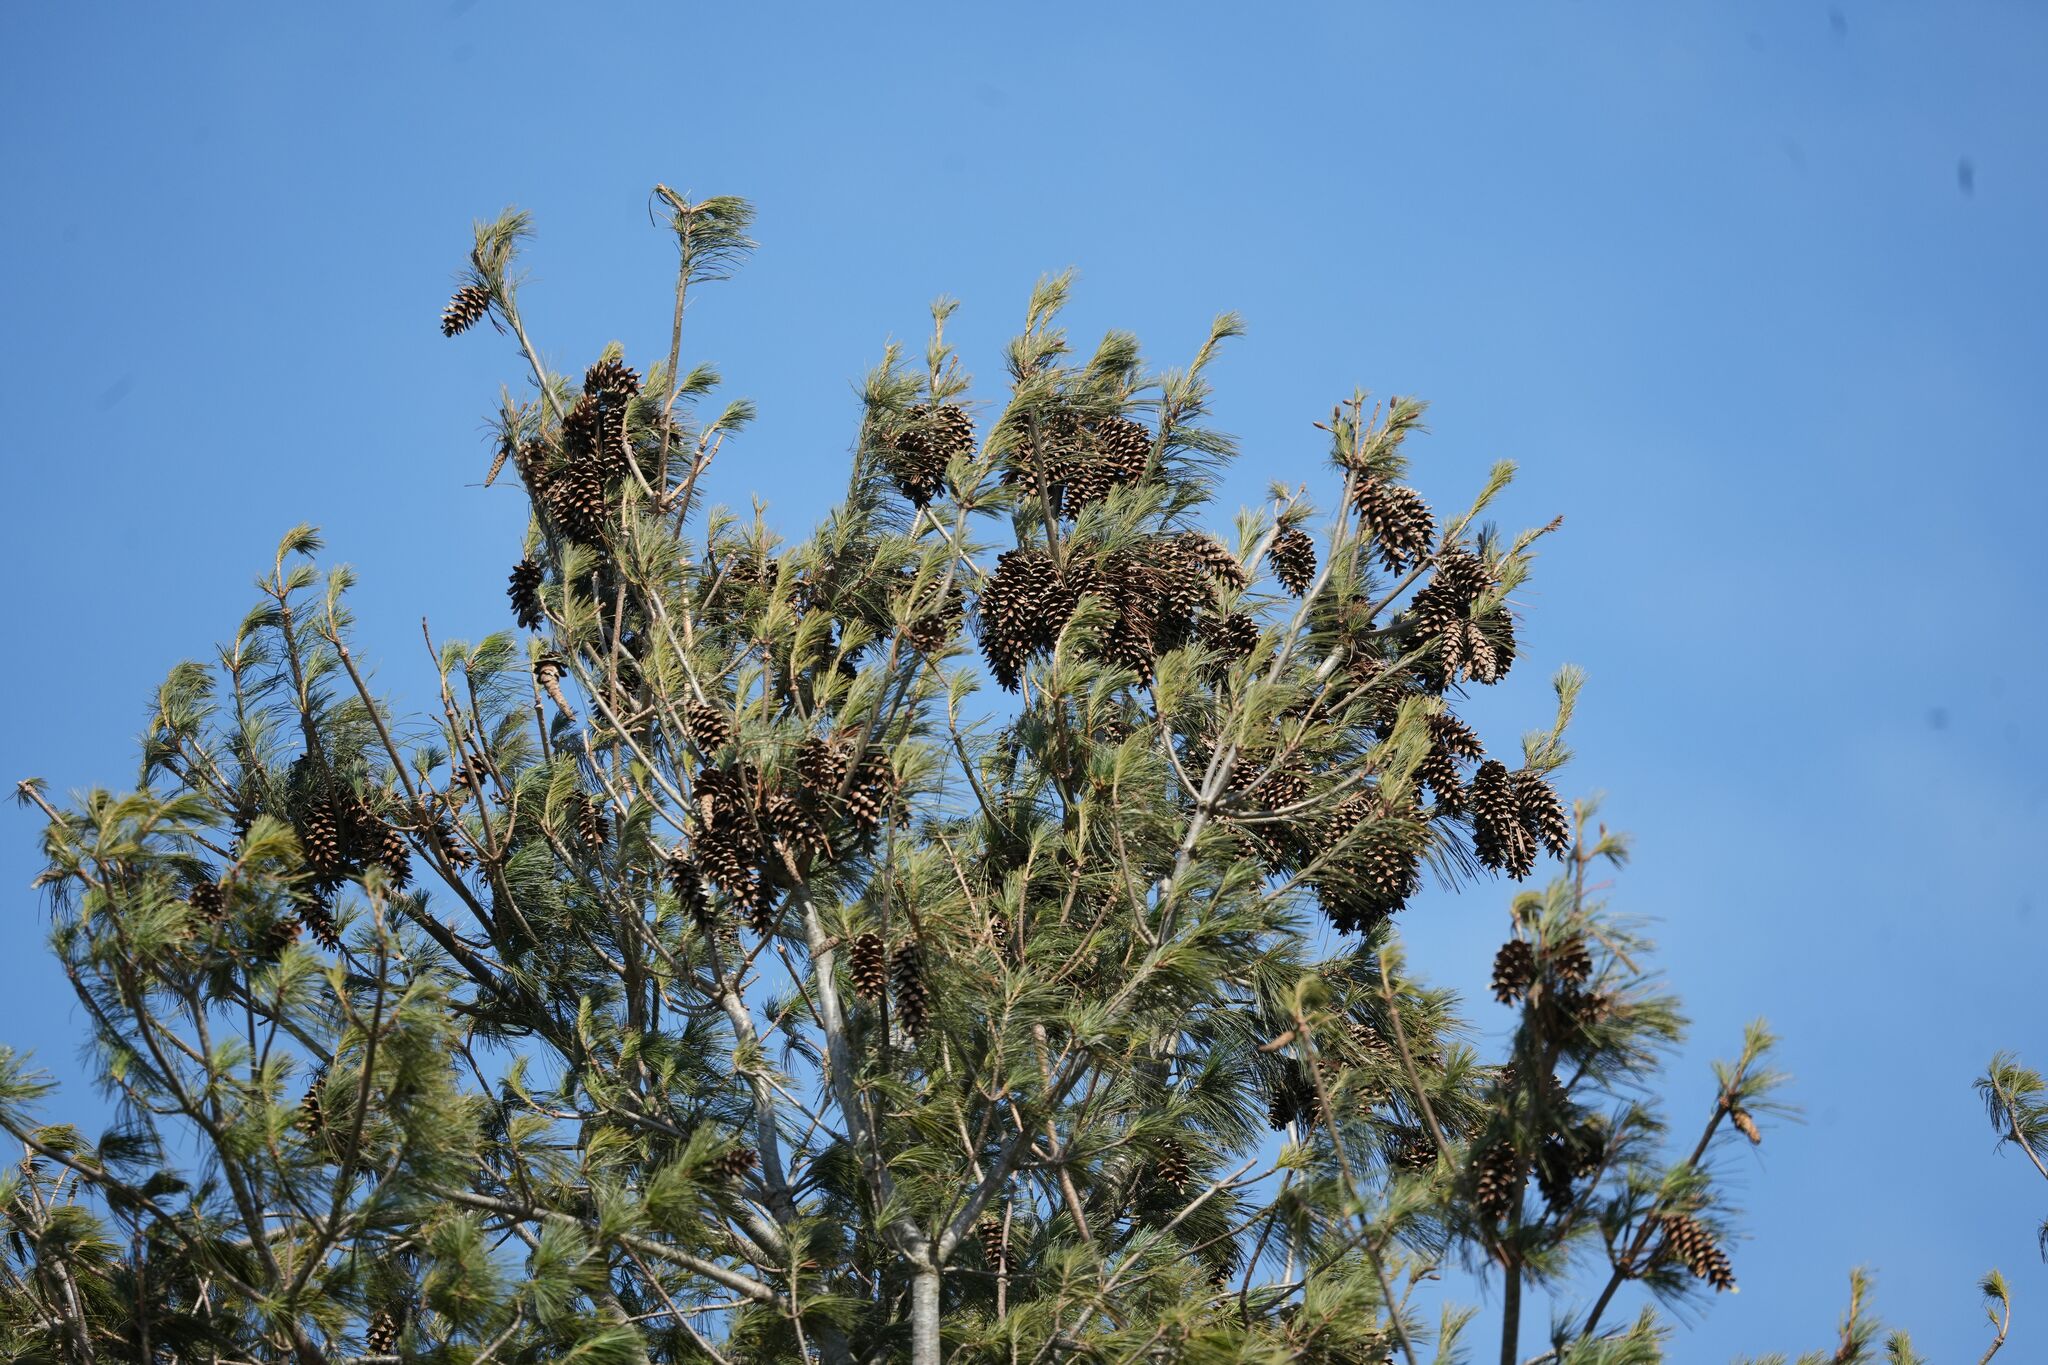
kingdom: Plantae
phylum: Tracheophyta
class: Pinopsida
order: Pinales
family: Pinaceae
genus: Pinus
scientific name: Pinus strobus
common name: Weymouth pine
